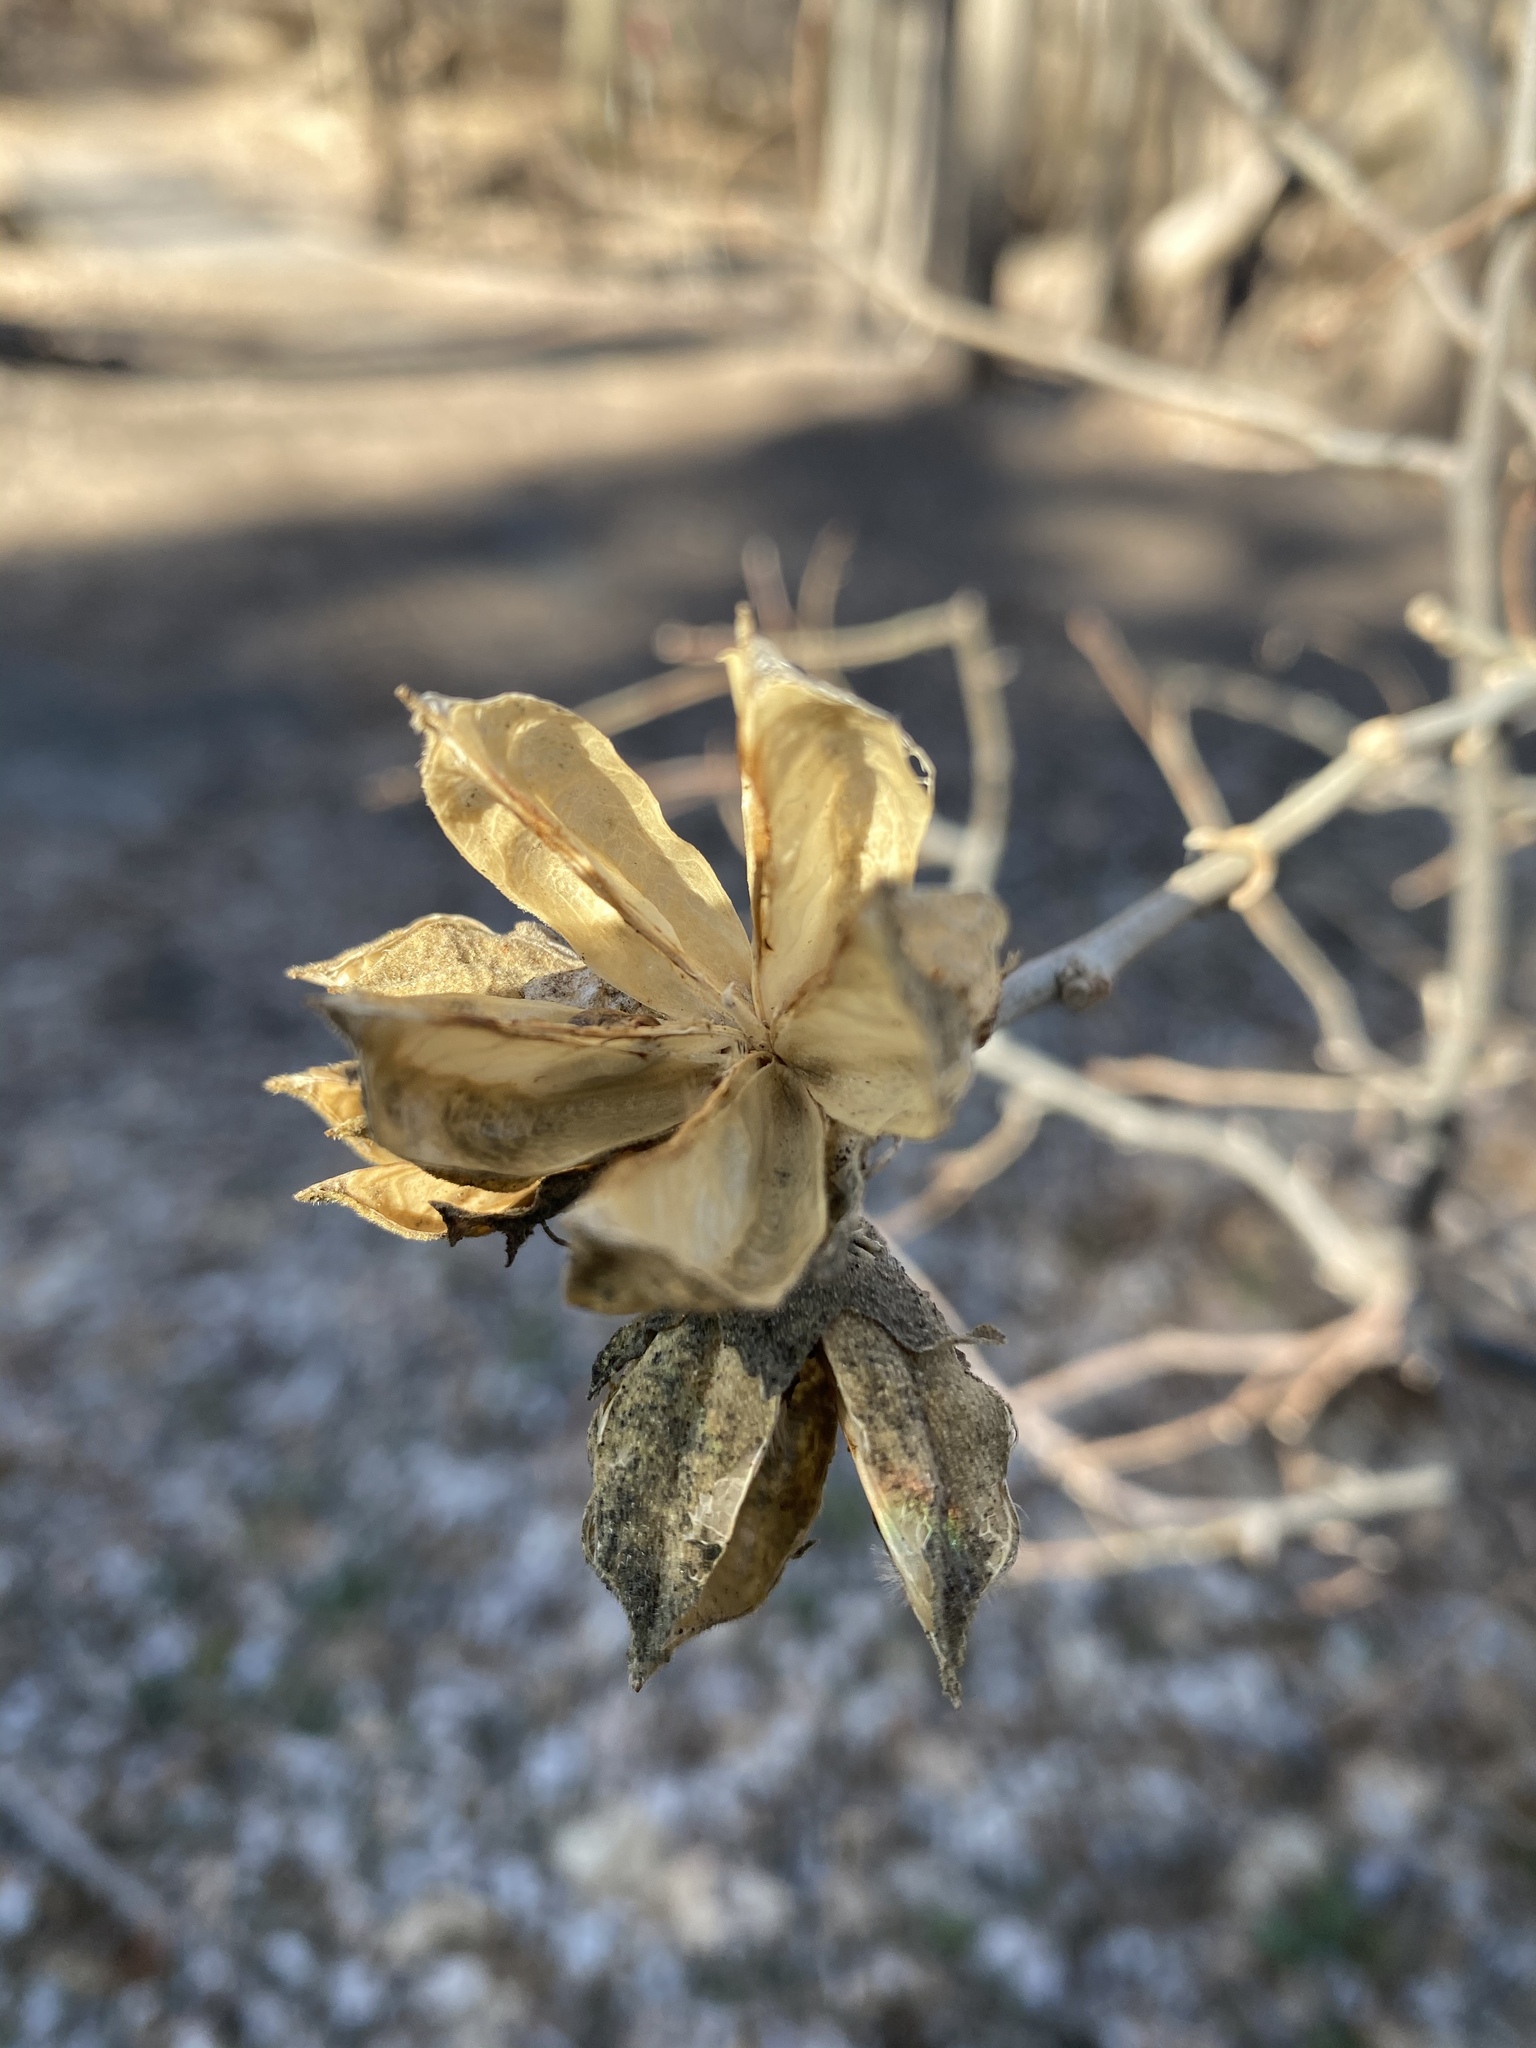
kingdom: Plantae
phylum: Tracheophyta
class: Magnoliopsida
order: Malvales
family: Malvaceae
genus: Hibiscus
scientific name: Hibiscus syriacus
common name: Syrian ketmia
